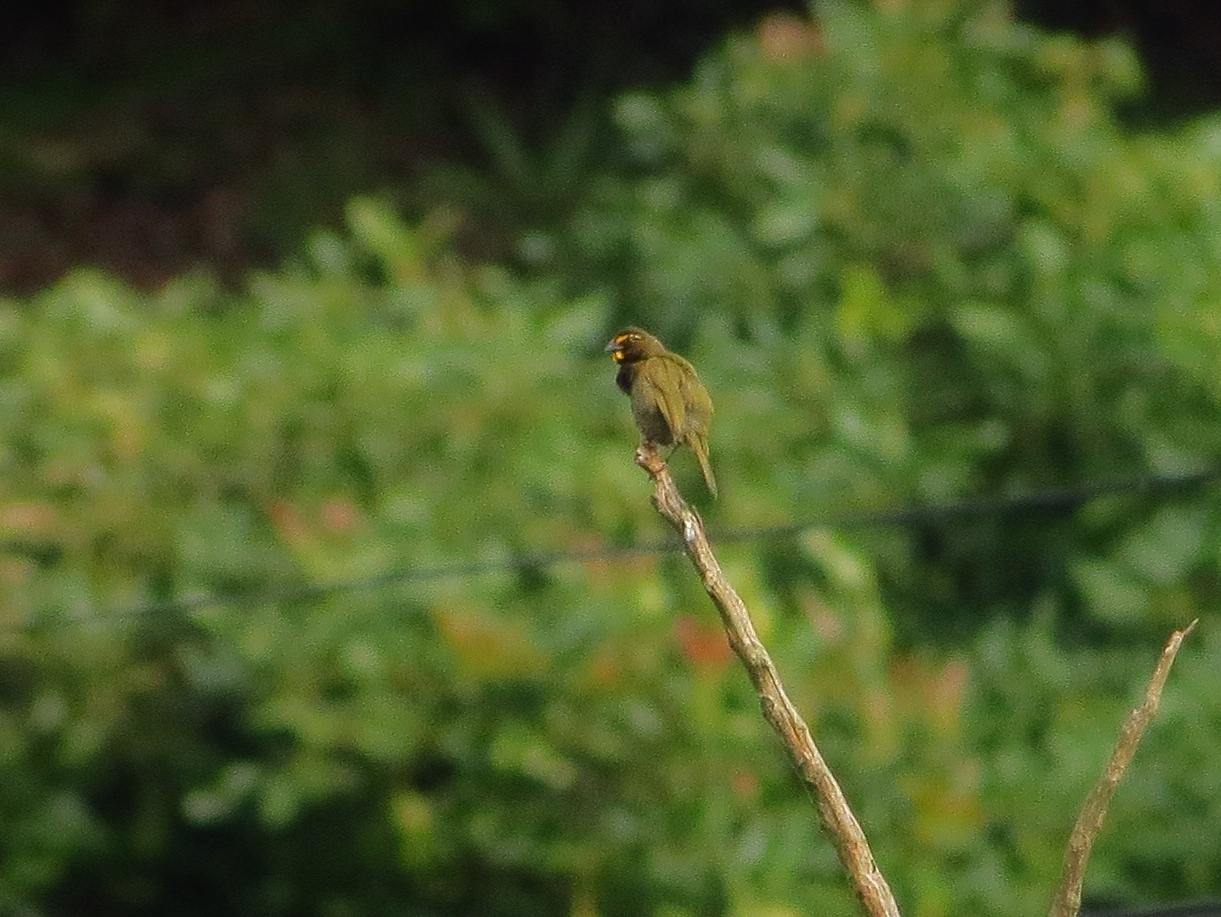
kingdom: Animalia
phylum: Chordata
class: Aves
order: Passeriformes
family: Thraupidae
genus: Tiaris
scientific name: Tiaris olivaceus
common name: Yellow-faced grassquit
